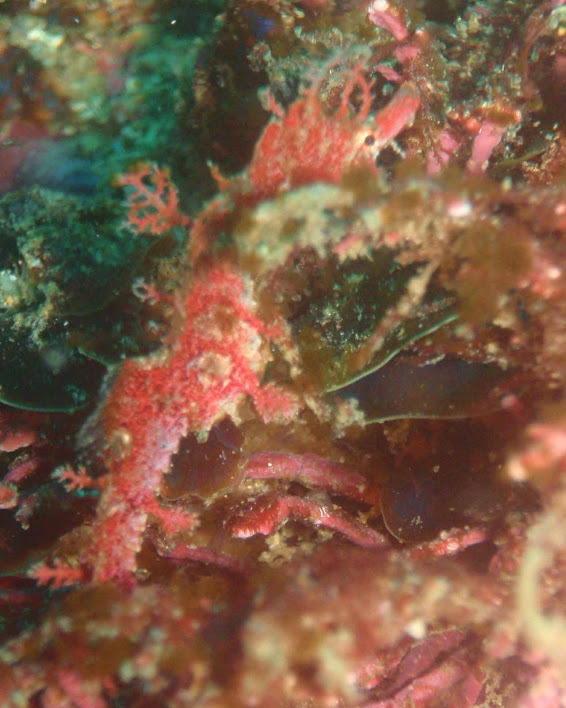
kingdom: Animalia
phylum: Chordata
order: Syngnathiformes
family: Syngnathidae
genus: Idiotropiscis
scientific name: Idiotropiscis lumnitzeri
